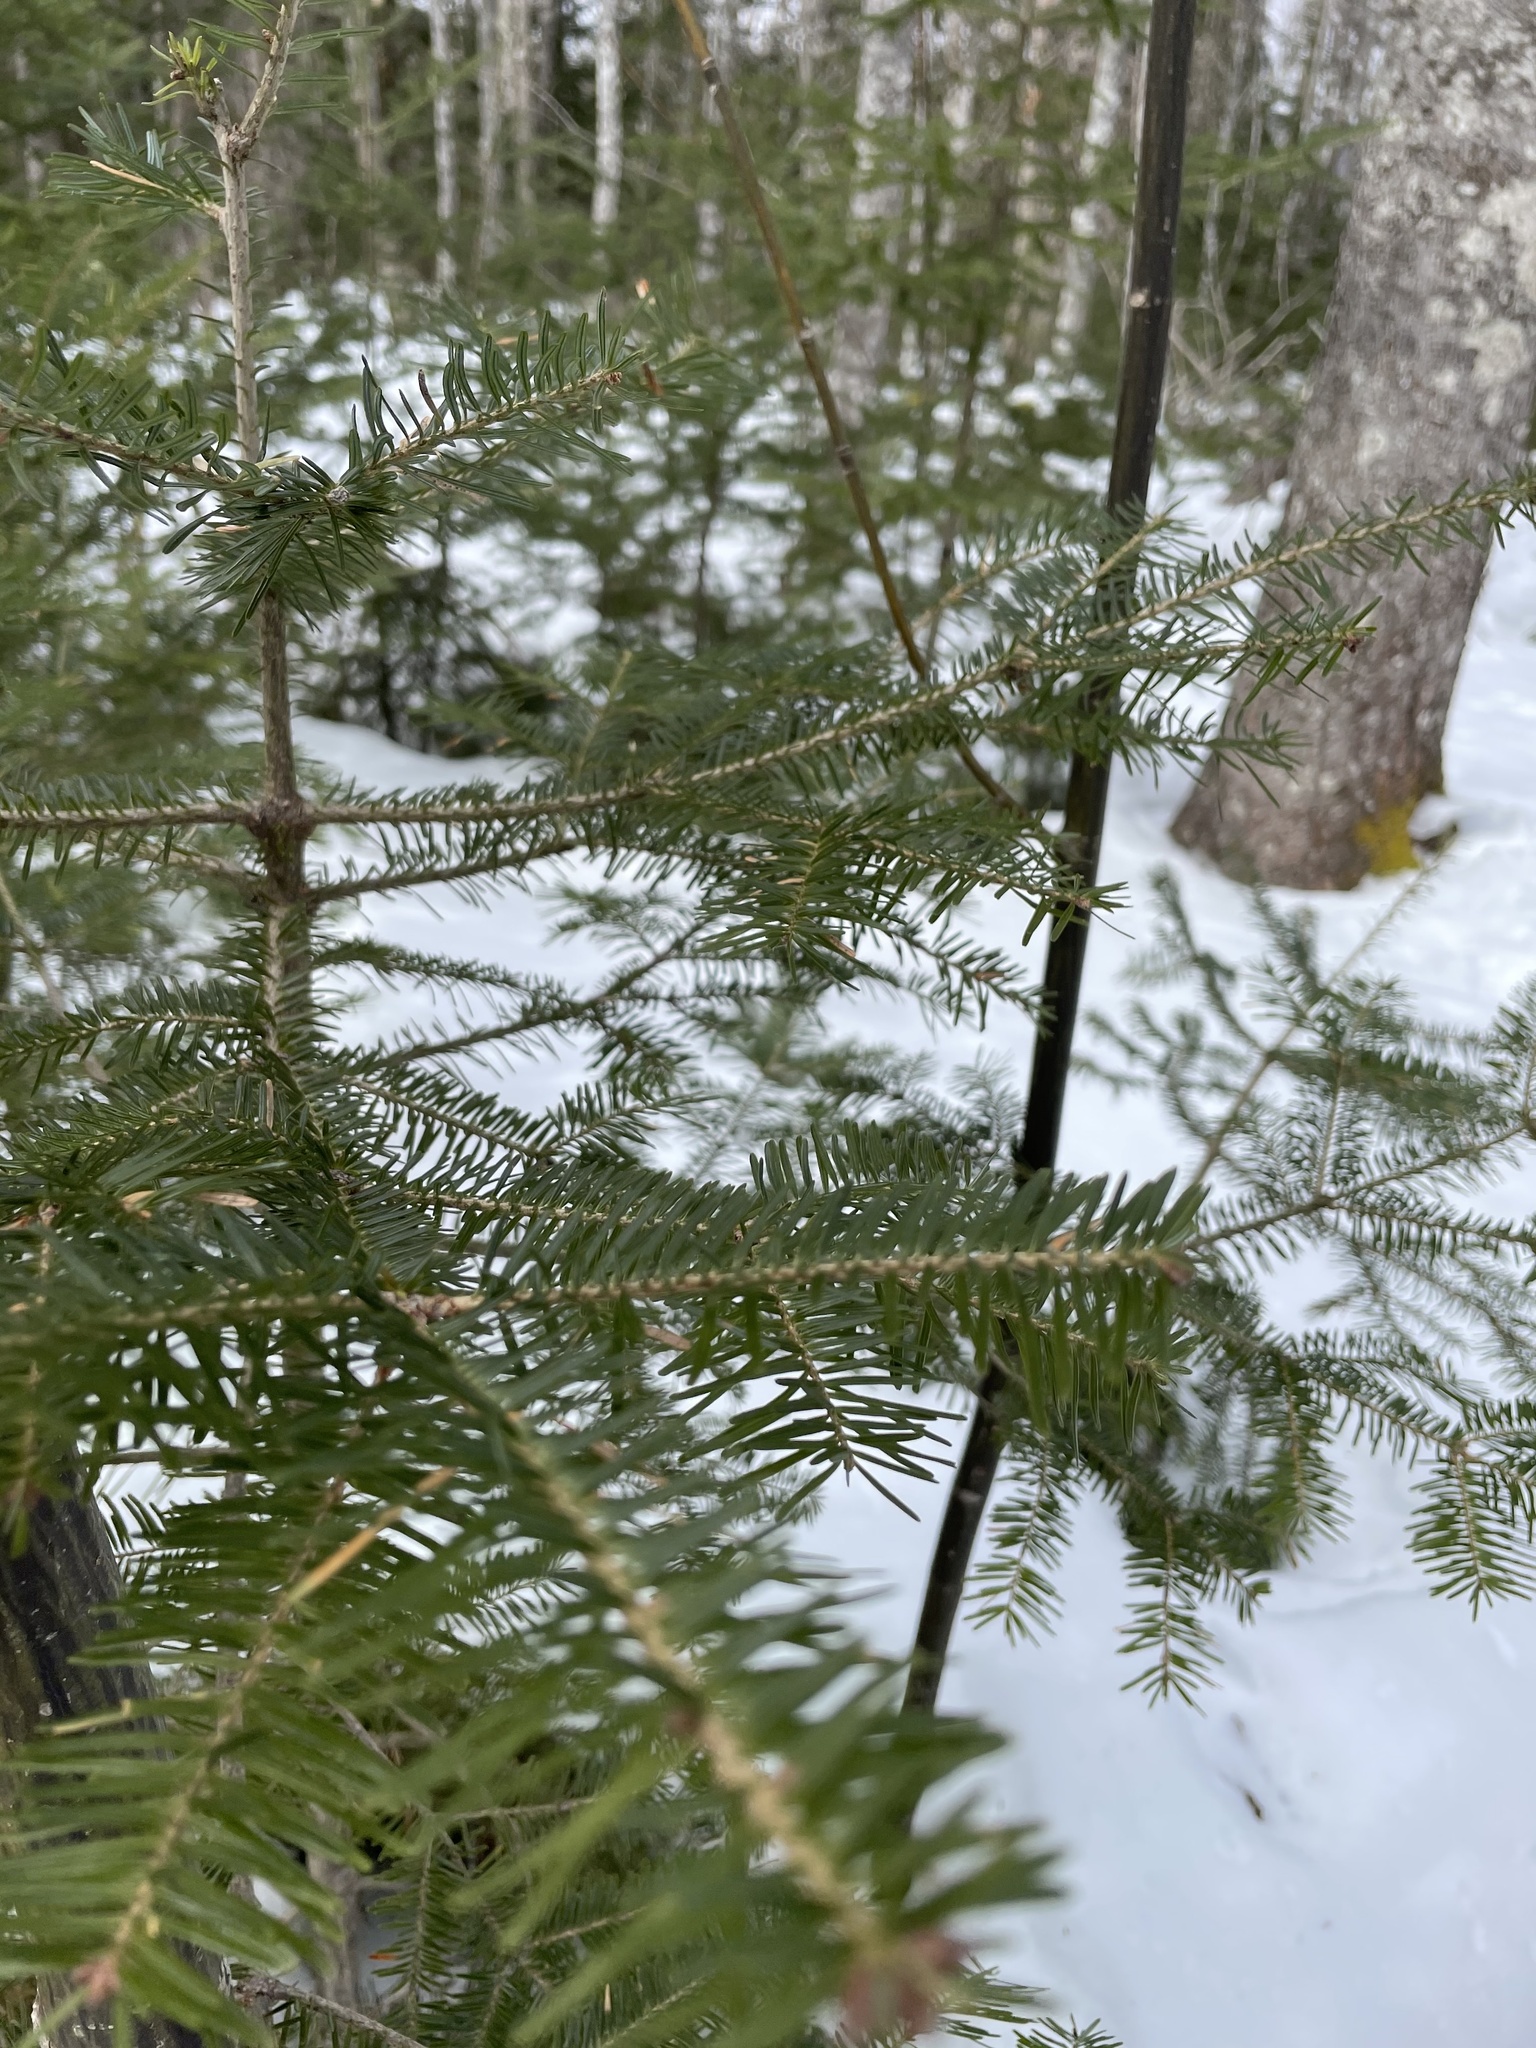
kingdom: Plantae
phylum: Tracheophyta
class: Pinopsida
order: Pinales
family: Pinaceae
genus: Abies
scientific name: Abies balsamea
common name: Balsam fir
